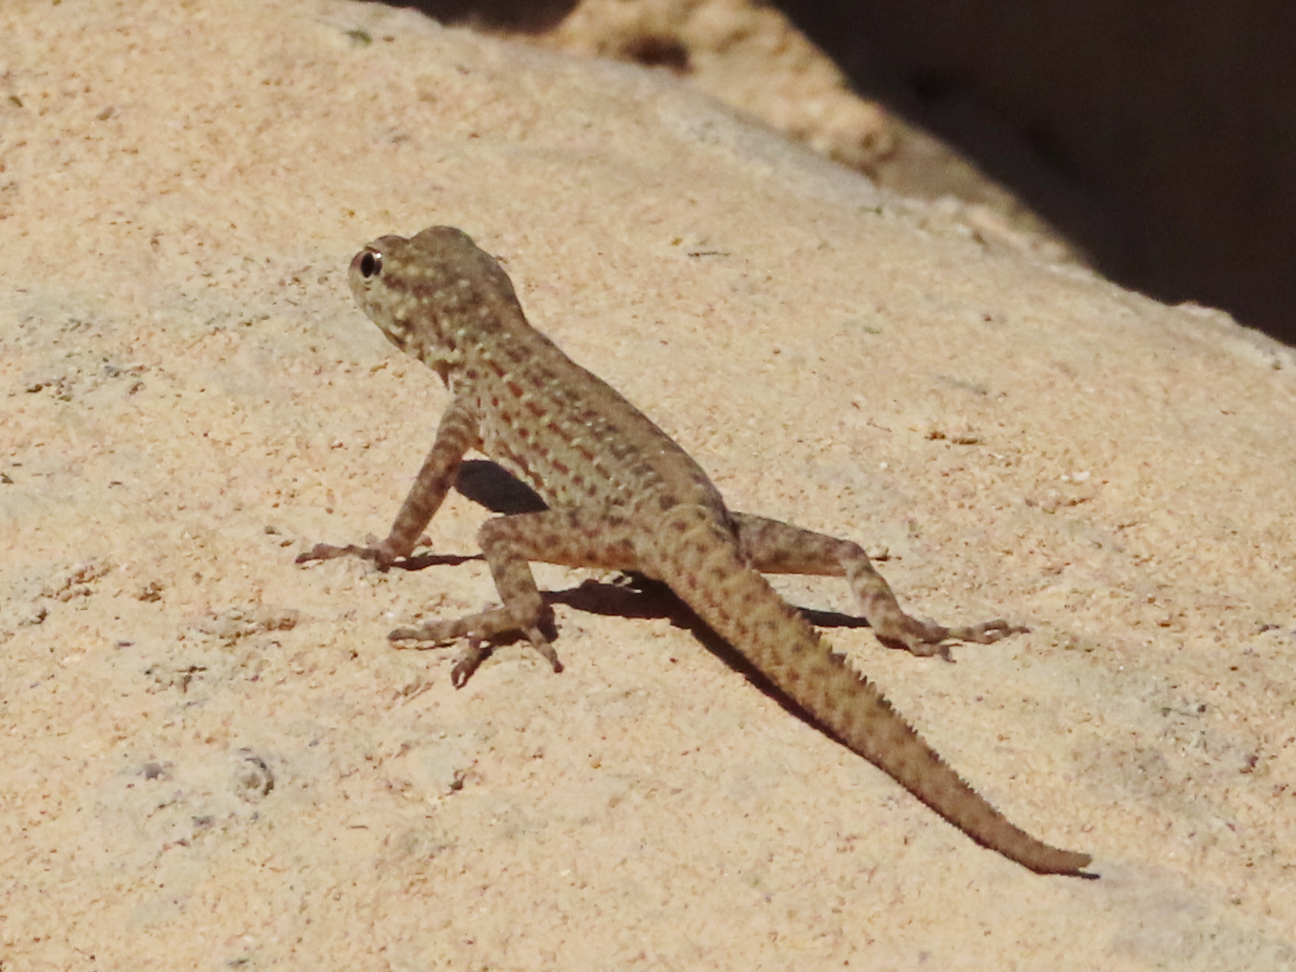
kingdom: Animalia
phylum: Chordata
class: Squamata
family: Sphaerodactylidae
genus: Pristurus
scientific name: Pristurus rupestris
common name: Blanford’s semaphore gecko
